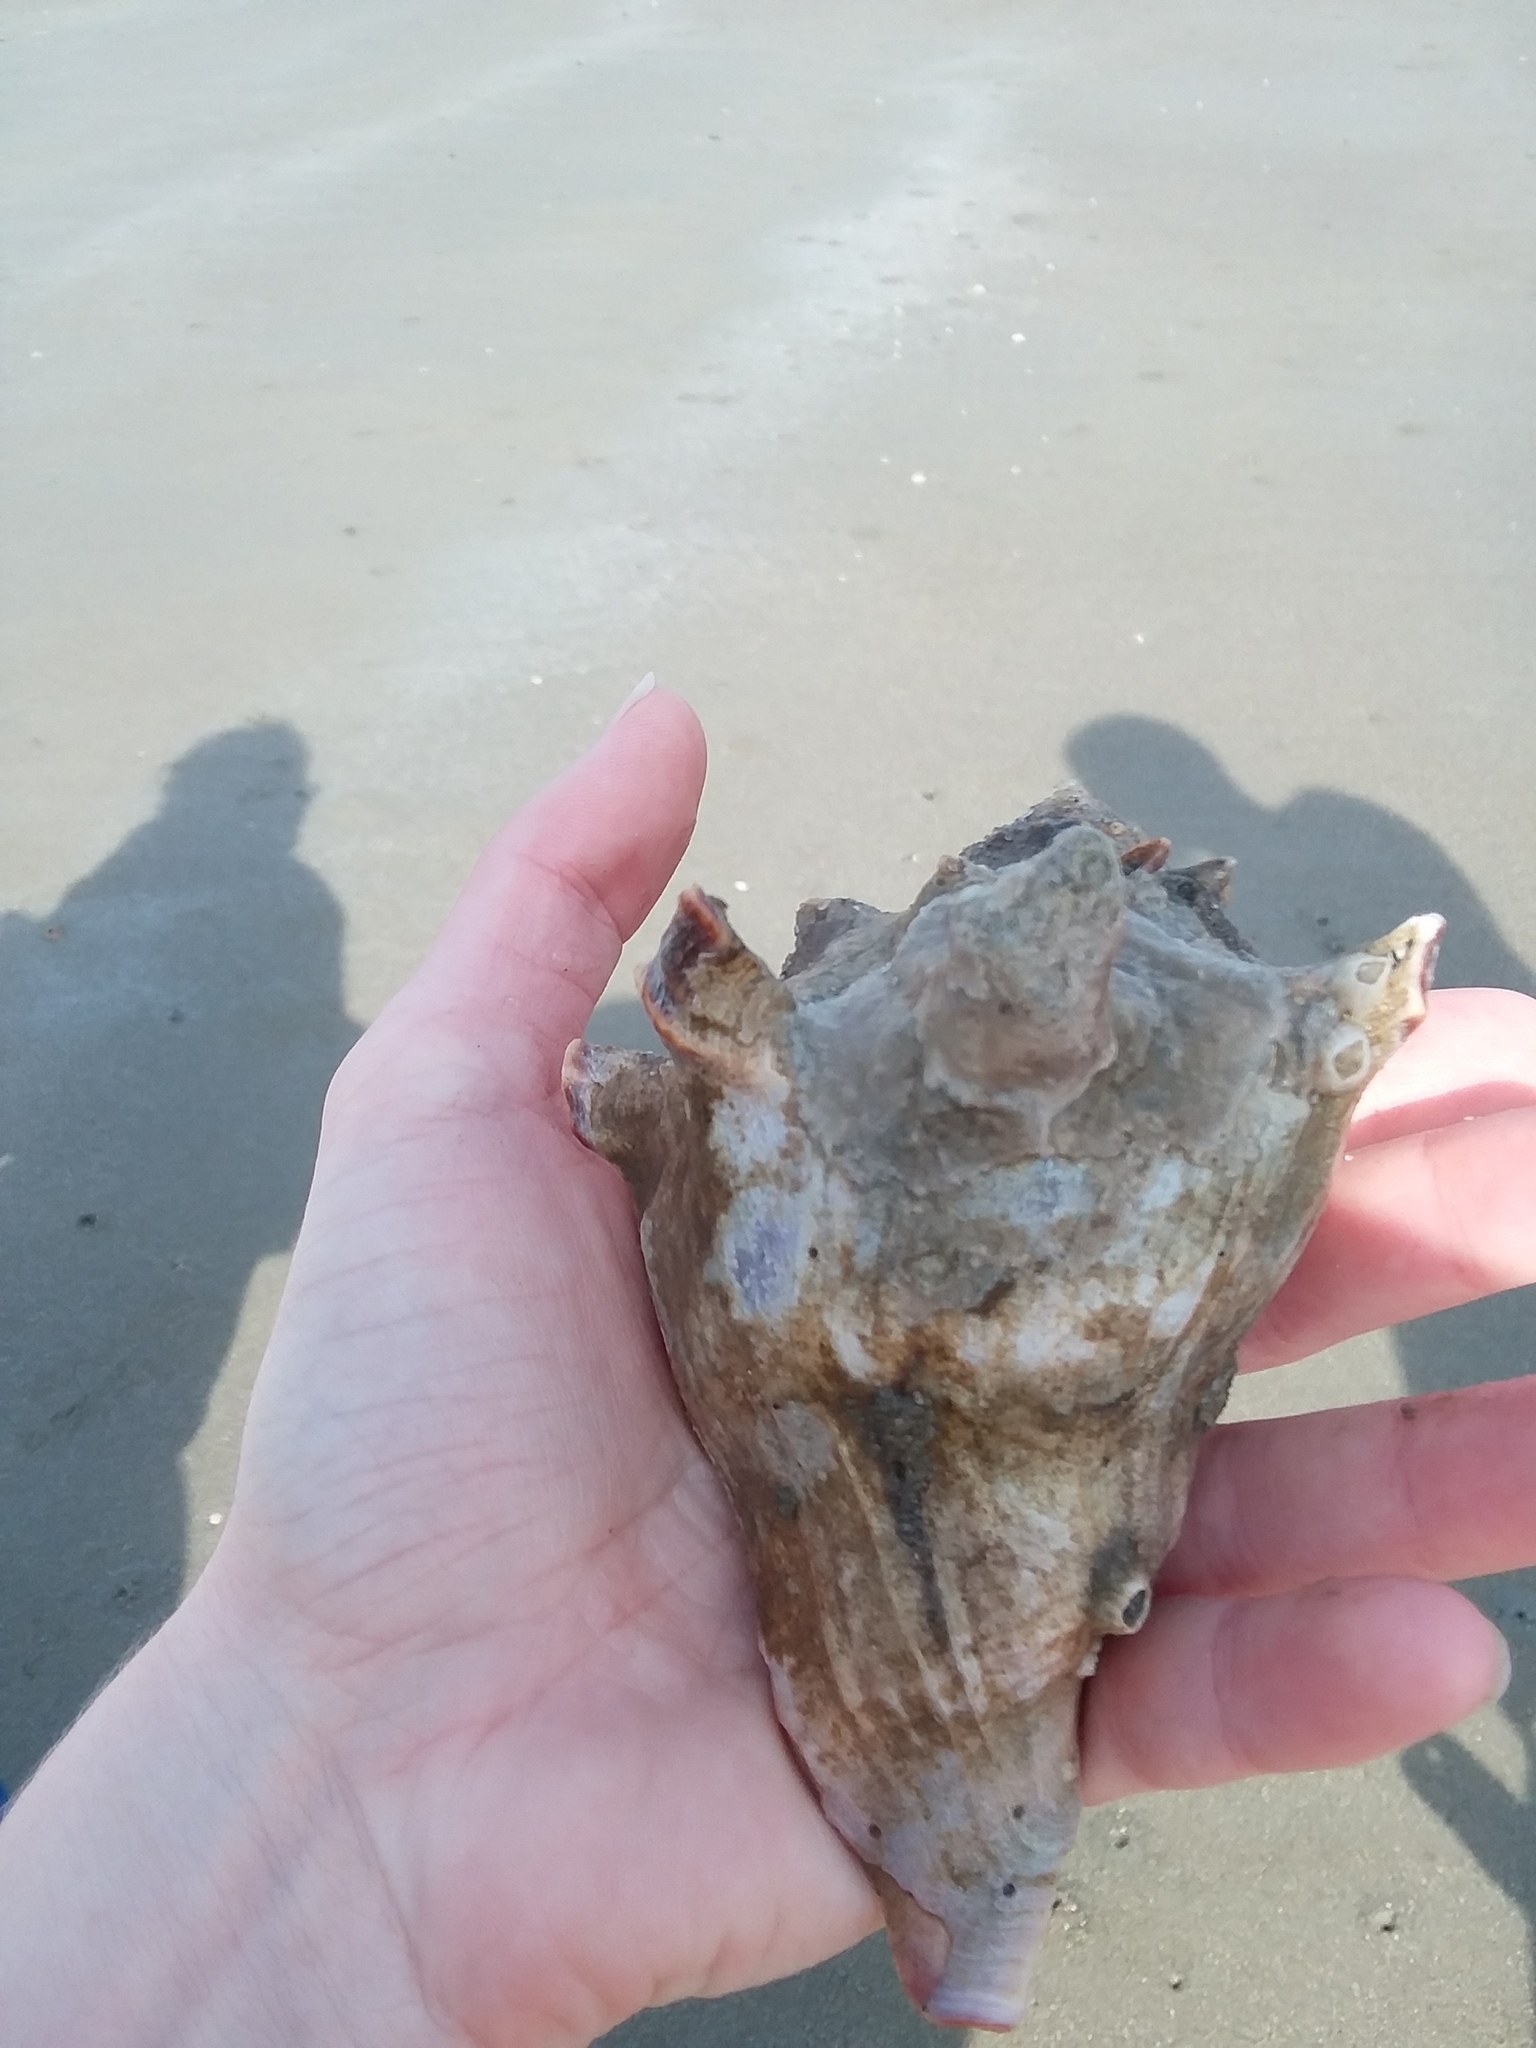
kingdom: Animalia
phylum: Mollusca
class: Gastropoda
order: Neogastropoda
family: Busyconidae
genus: Busycon
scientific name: Busycon carica
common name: Knobbed whelk
